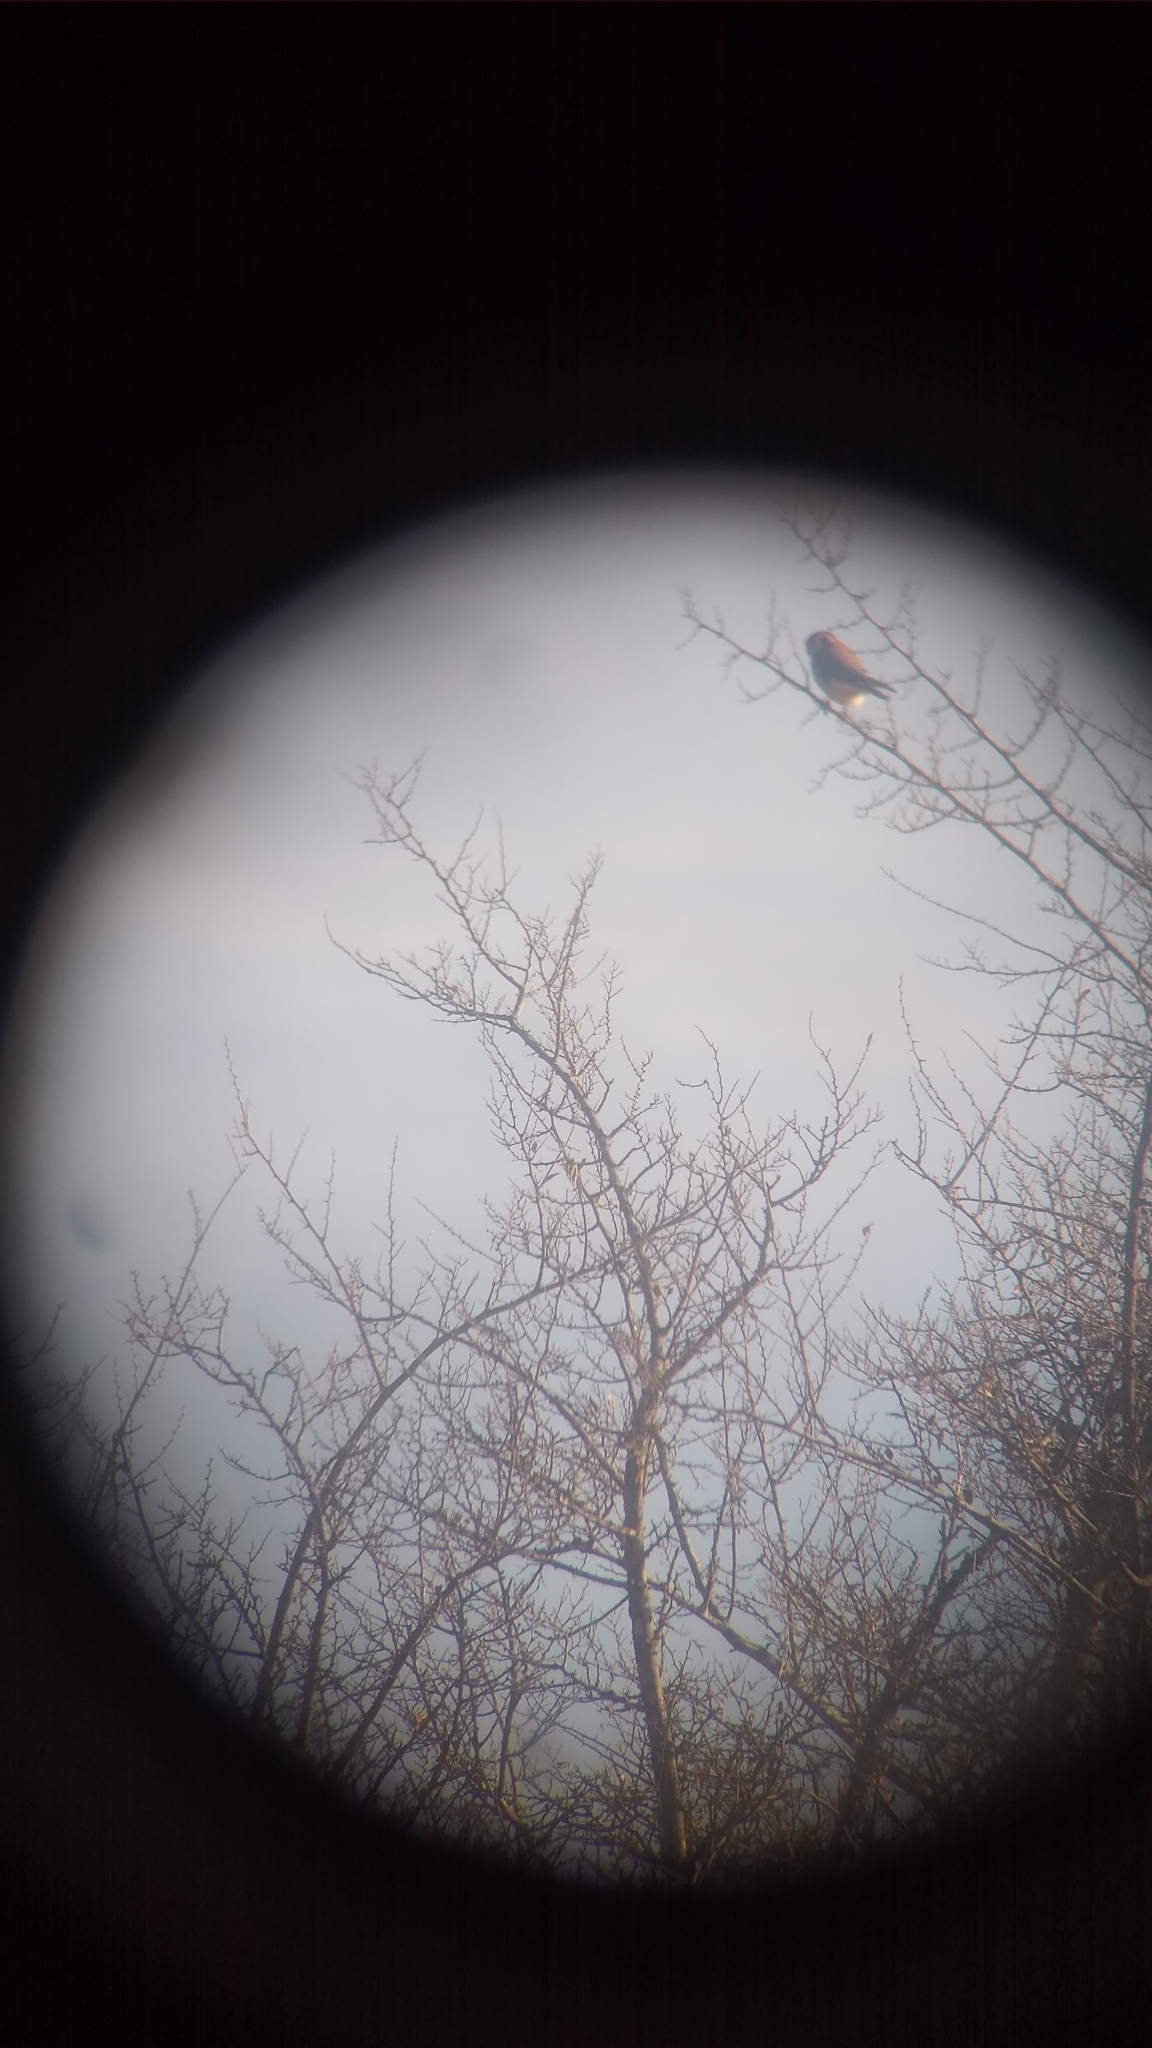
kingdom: Animalia
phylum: Chordata
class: Aves
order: Falconiformes
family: Falconidae
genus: Falco
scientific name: Falco sparverius
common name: American kestrel
